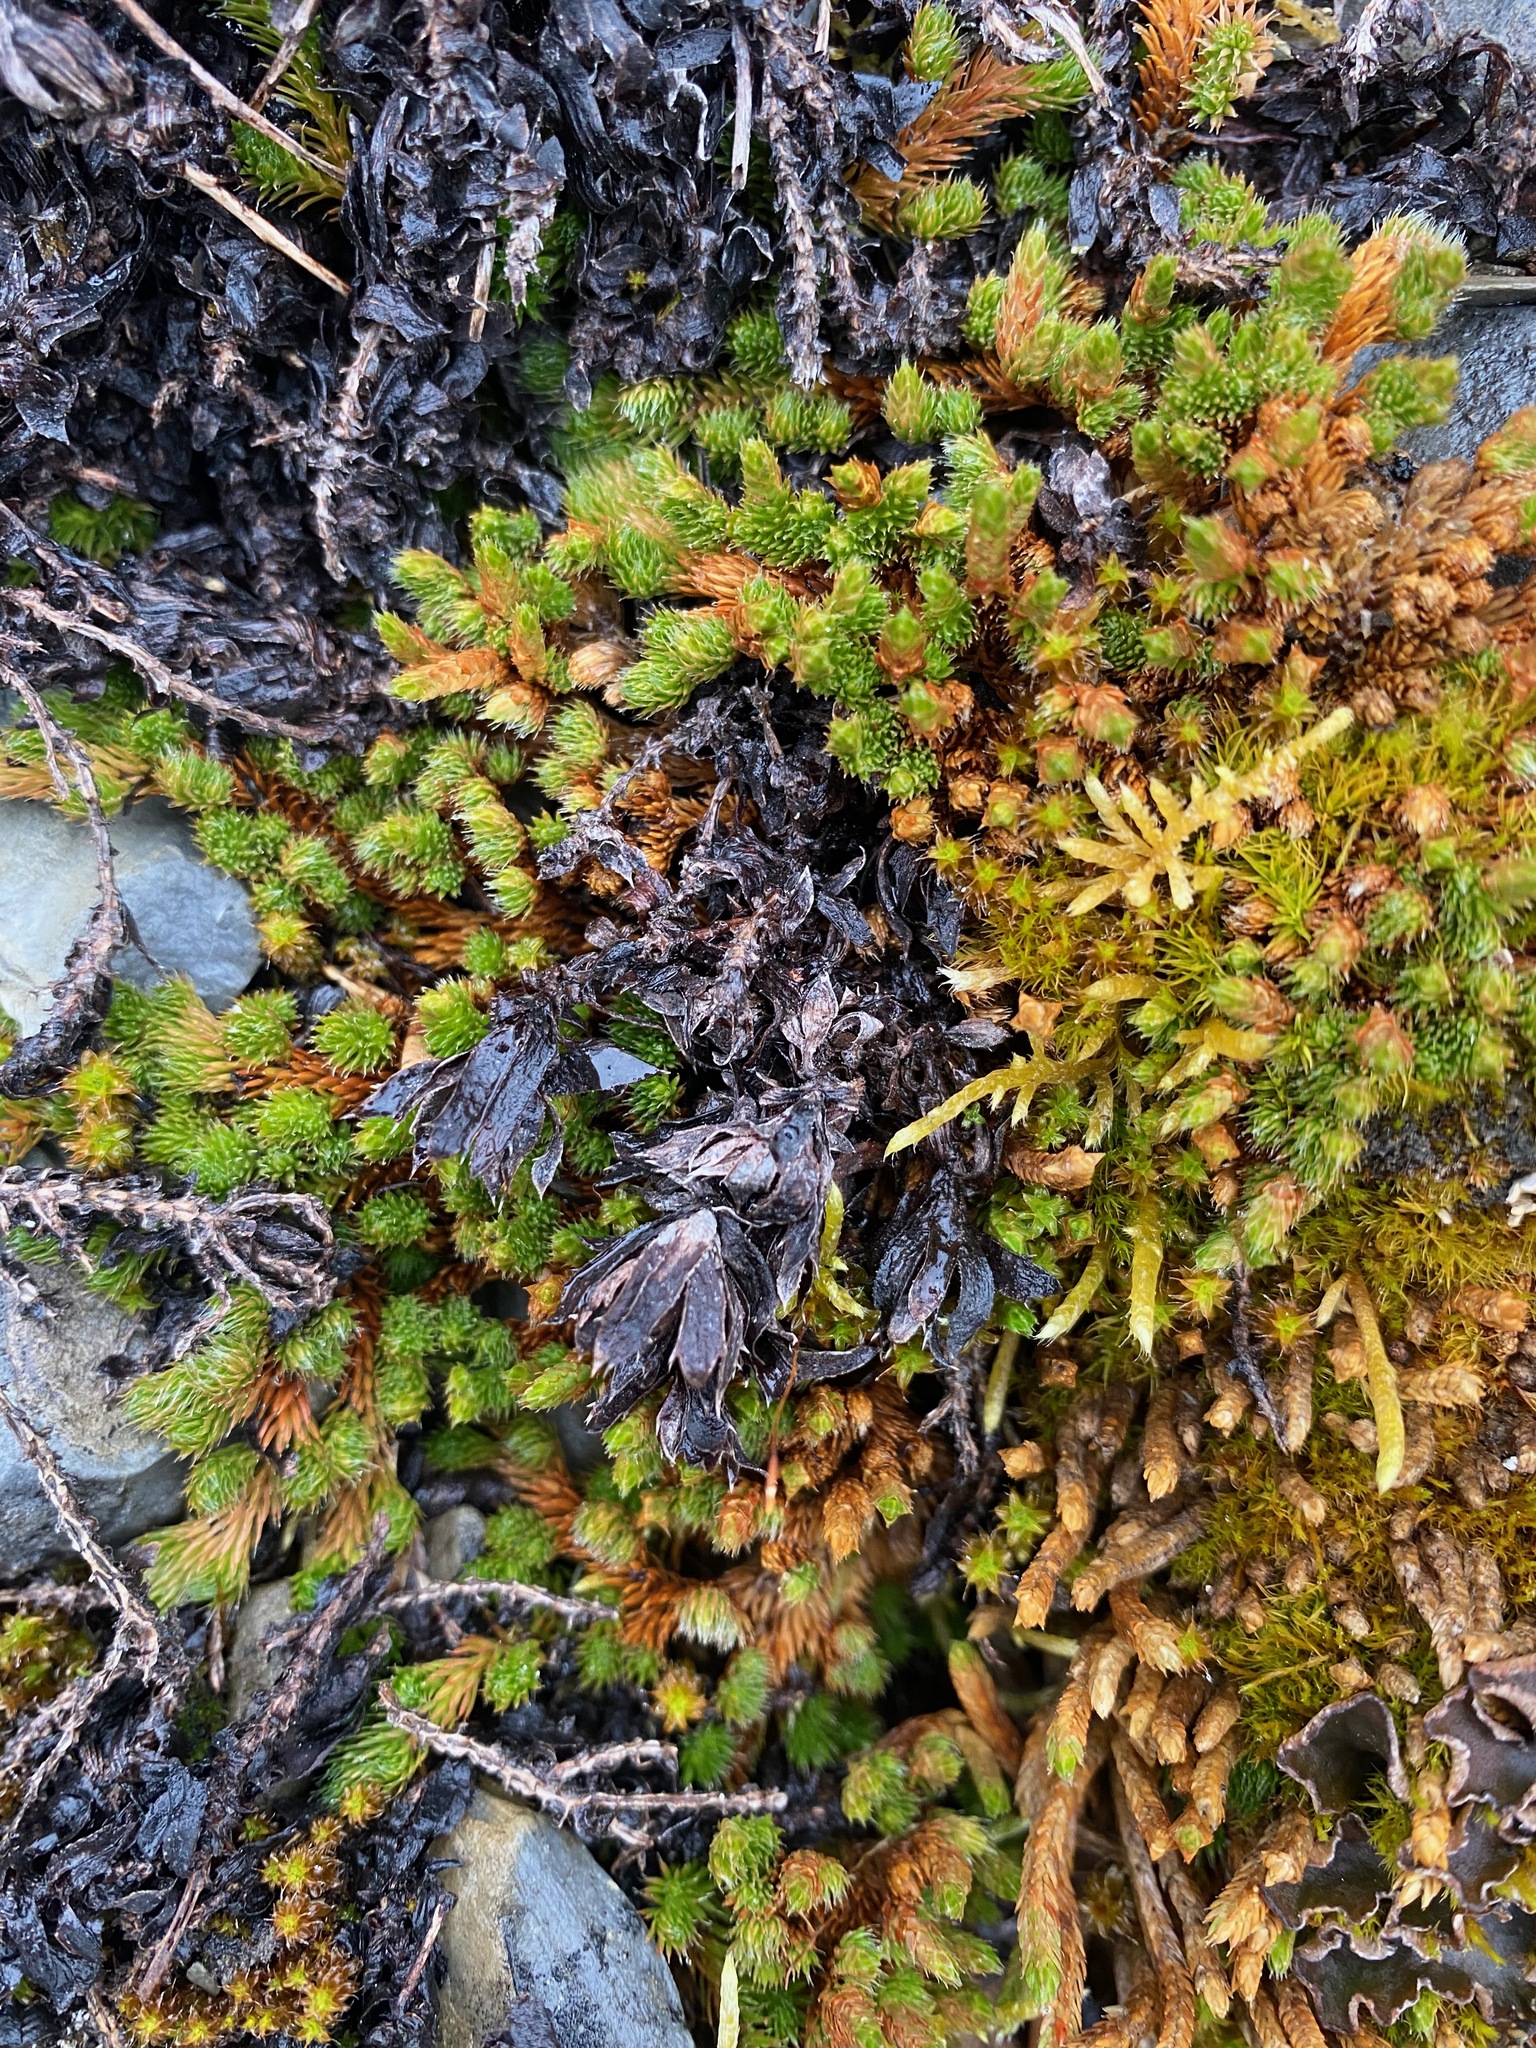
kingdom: Plantae
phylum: Tracheophyta
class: Lycopodiopsida
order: Selaginellales
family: Selaginellaceae
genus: Selaginella
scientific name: Selaginella densa
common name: Mountain spike-moss
